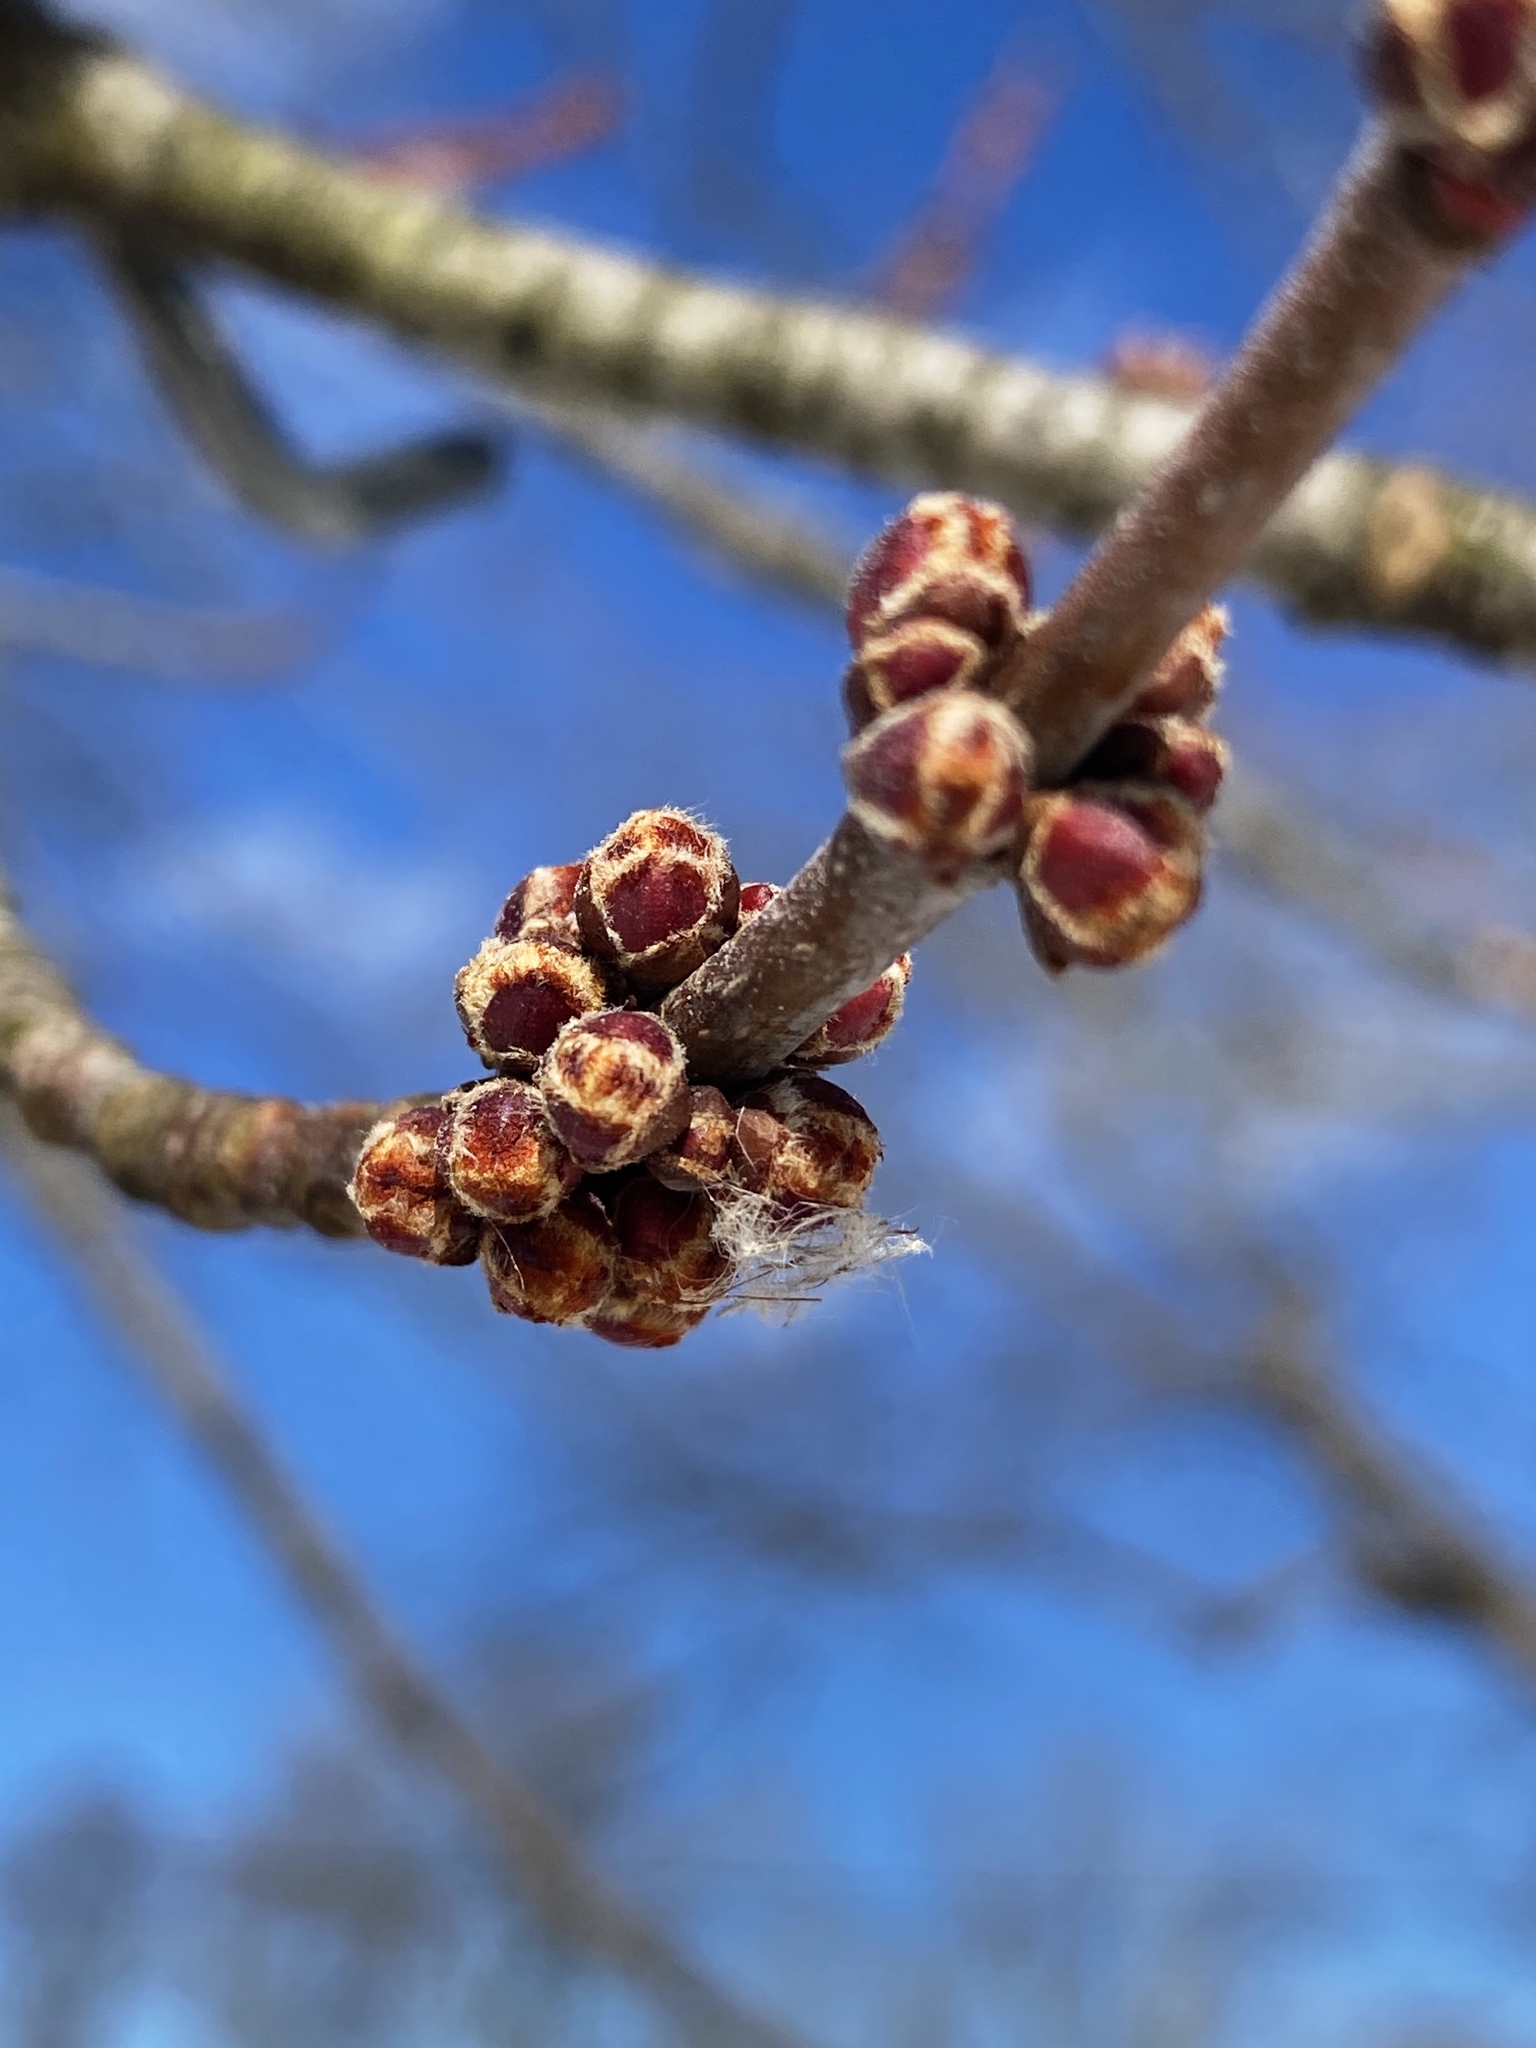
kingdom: Plantae
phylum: Tracheophyta
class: Magnoliopsida
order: Sapindales
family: Sapindaceae
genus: Acer
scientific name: Acer saccharinum
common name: Silver maple
